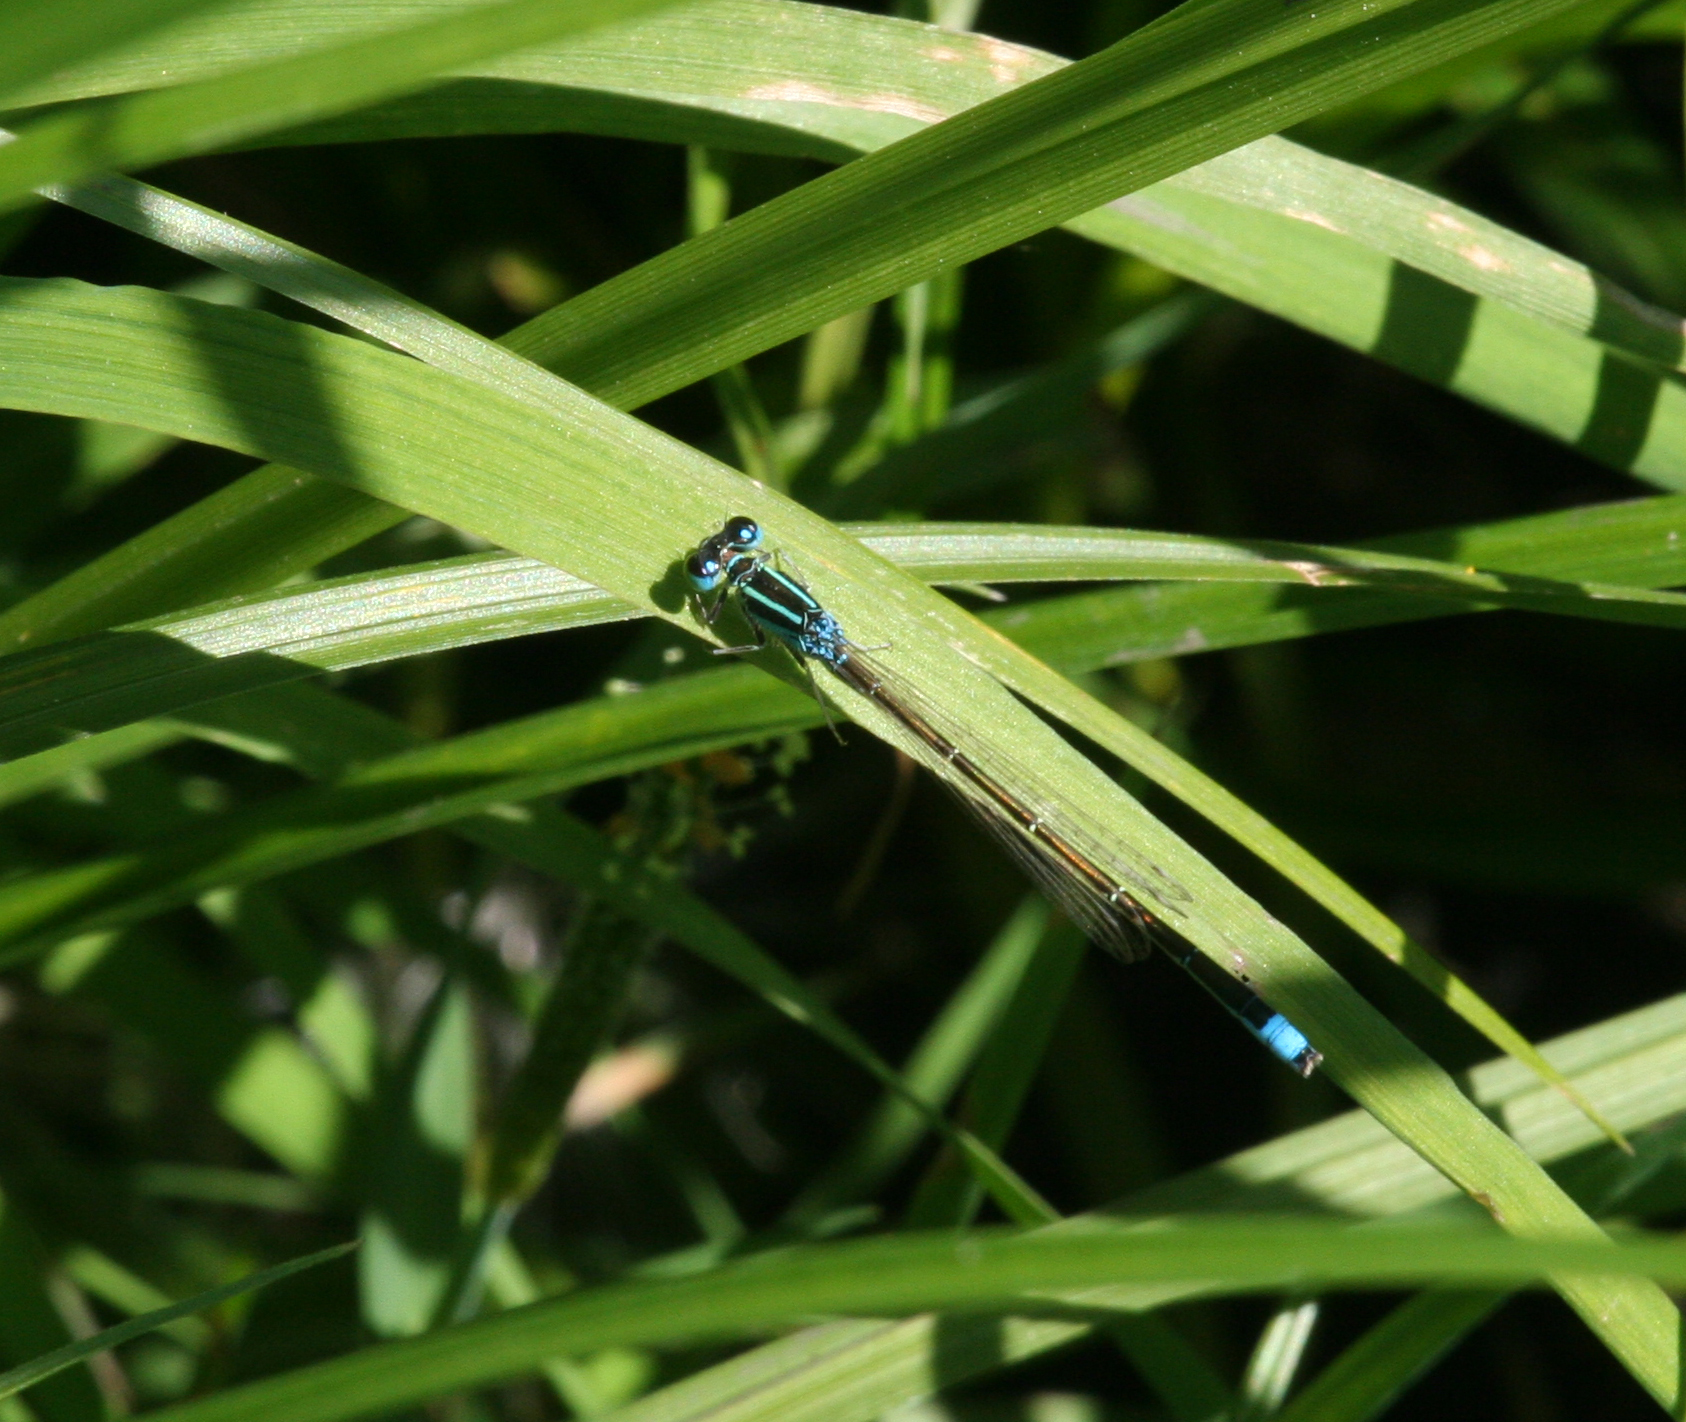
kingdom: Animalia
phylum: Arthropoda
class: Insecta
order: Odonata
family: Coenagrionidae
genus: Ischnura
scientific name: Ischnura pumilio
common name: Scarce blue-tailed damselfly
